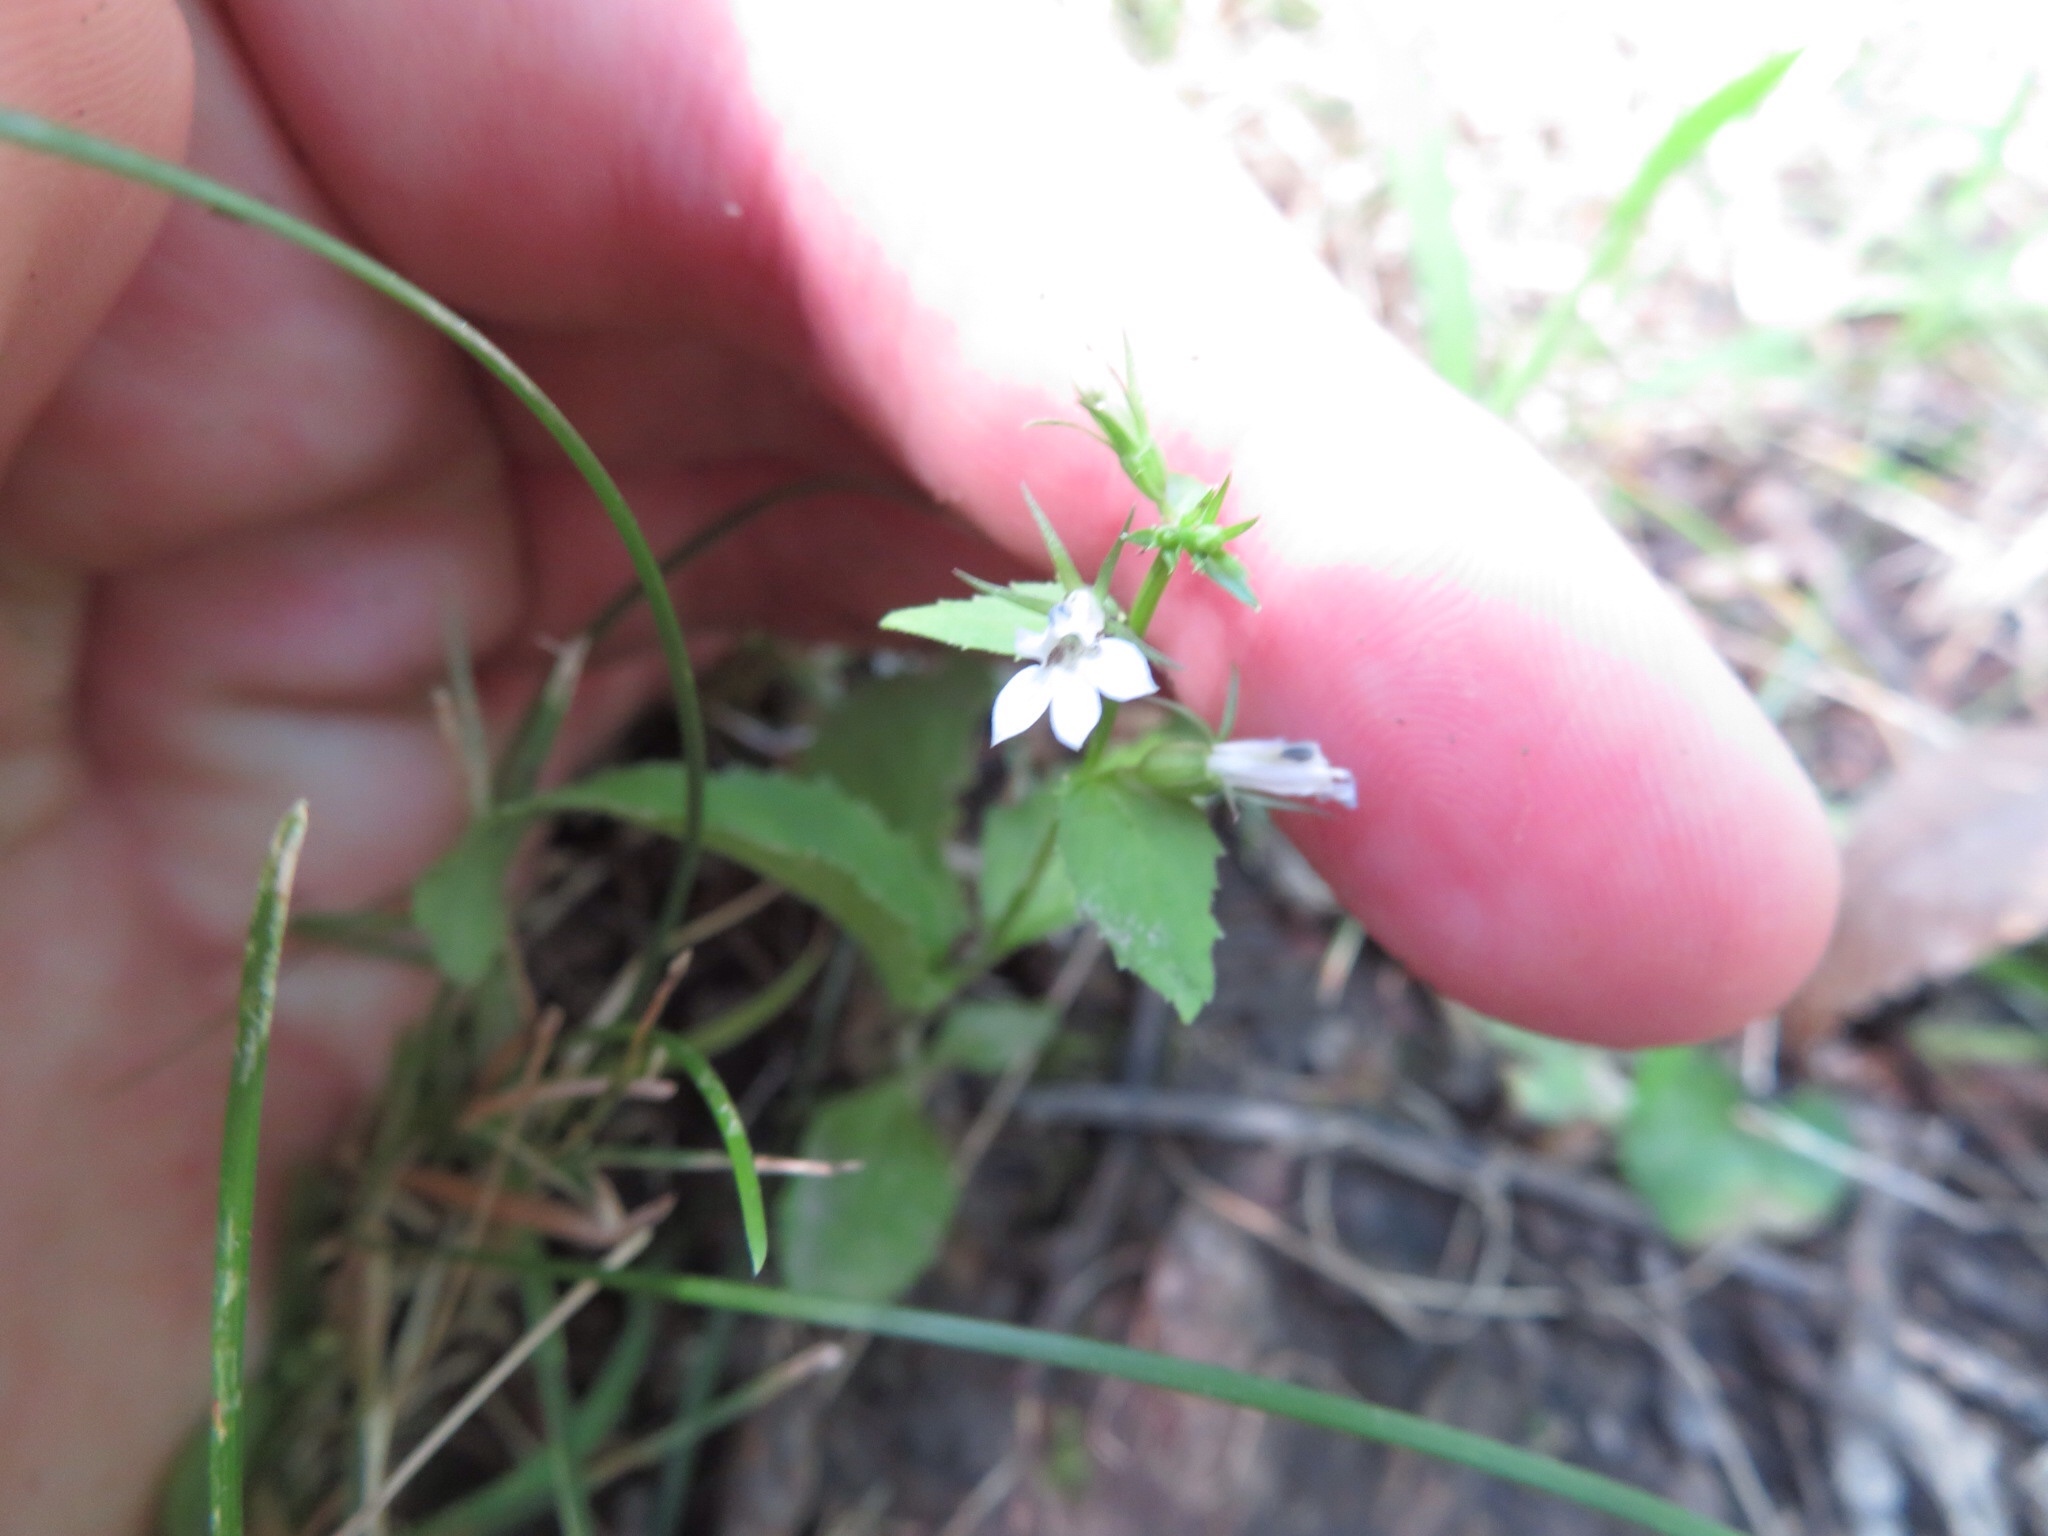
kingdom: Plantae
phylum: Tracheophyta
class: Magnoliopsida
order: Asterales
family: Campanulaceae
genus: Lobelia
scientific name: Lobelia inflata
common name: Indian tobacco
